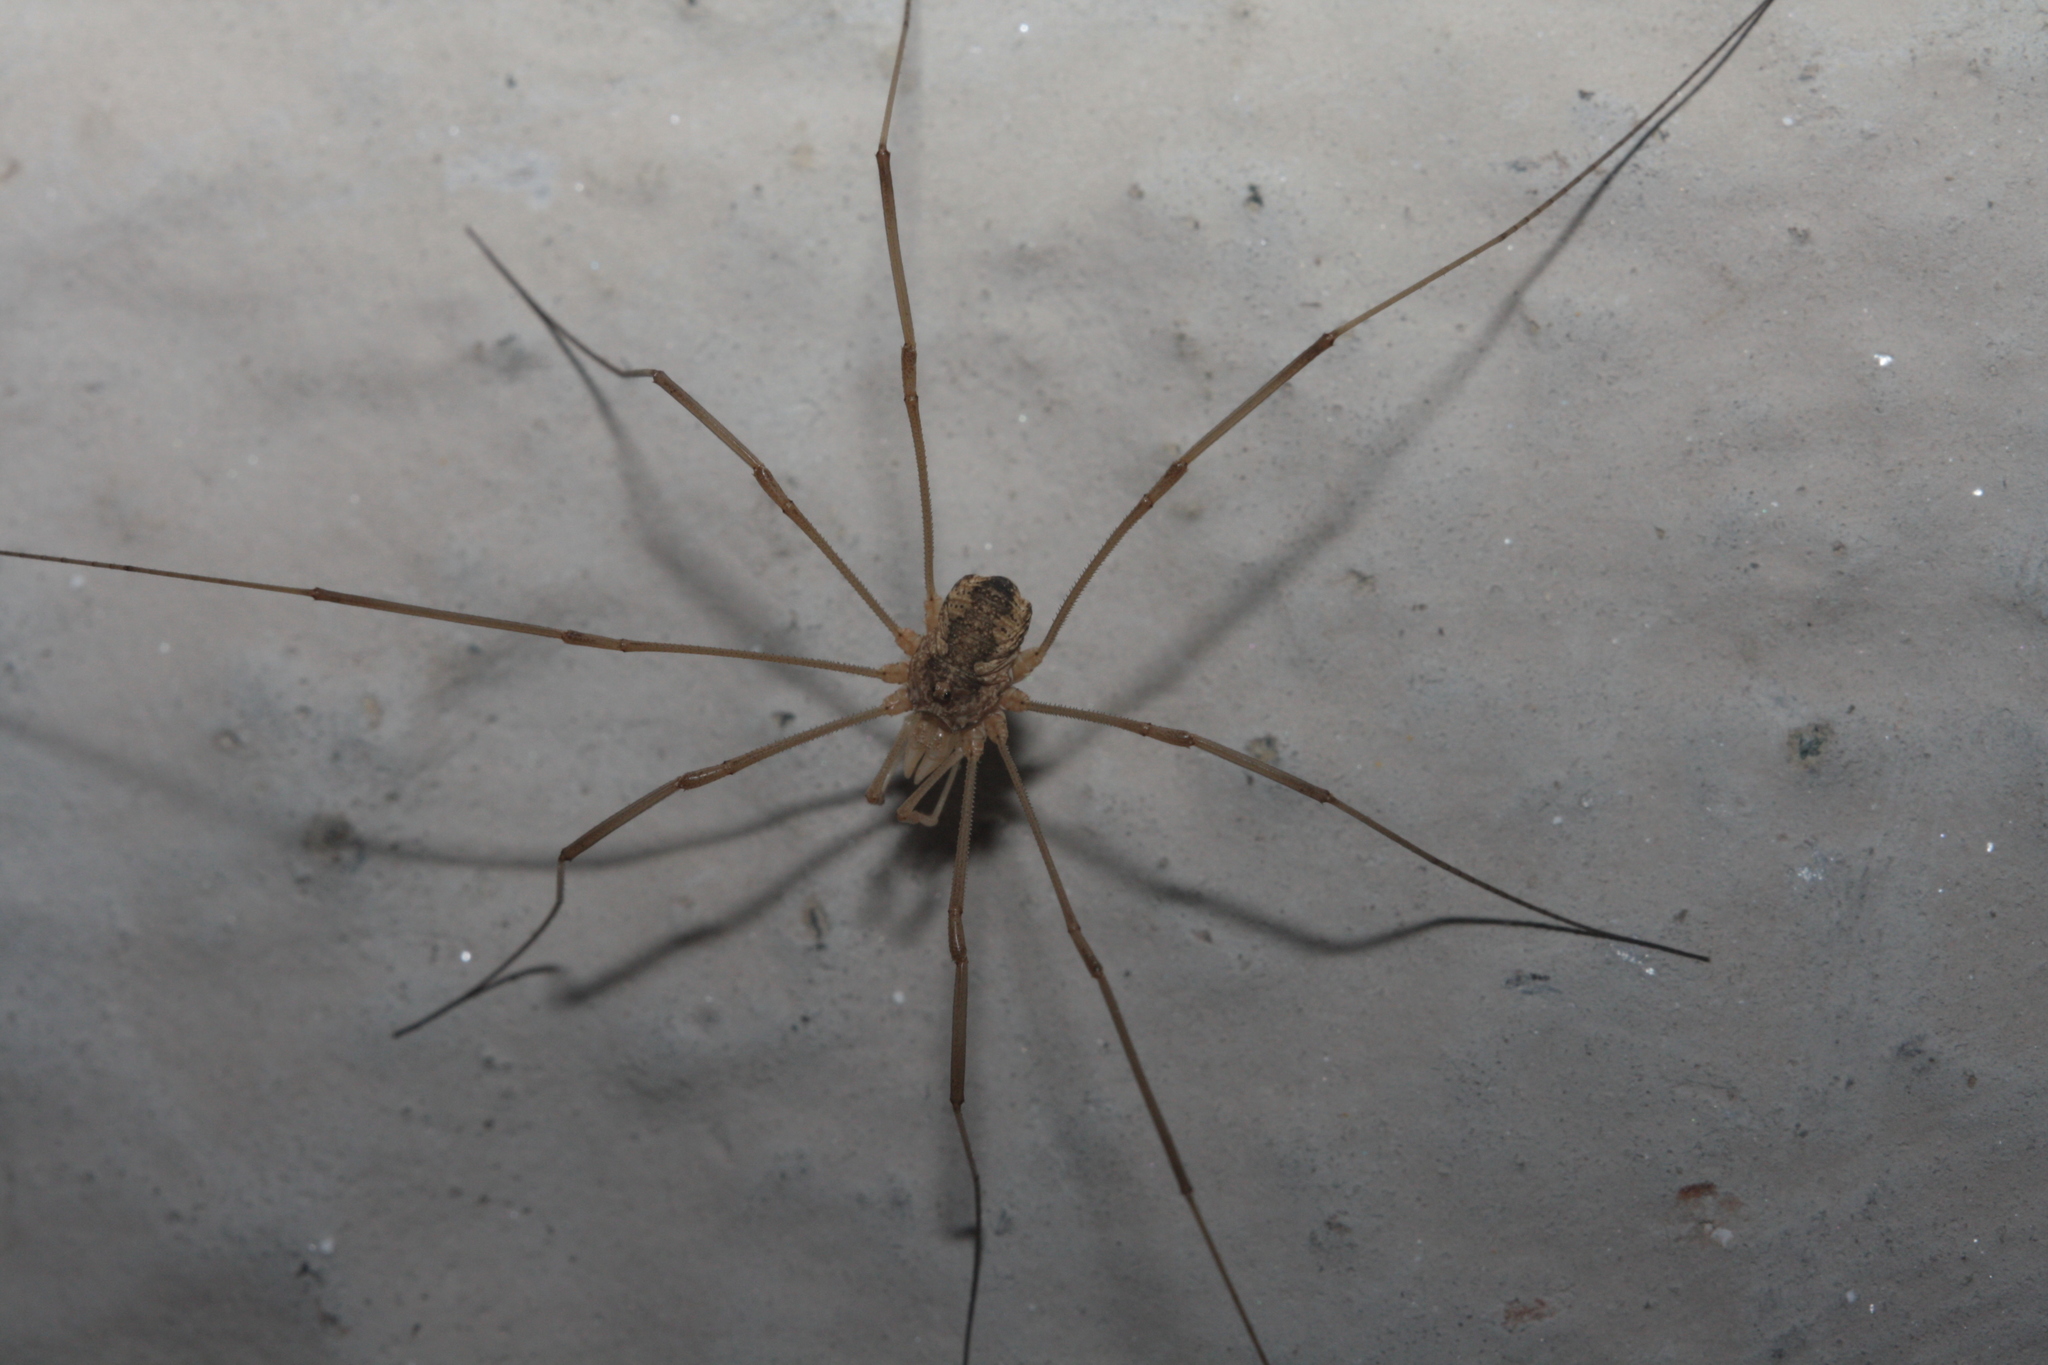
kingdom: Animalia
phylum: Arthropoda
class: Arachnida
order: Opiliones
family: Phalangiidae
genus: Phalangium
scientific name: Phalangium opilio
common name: Daddy longleg
